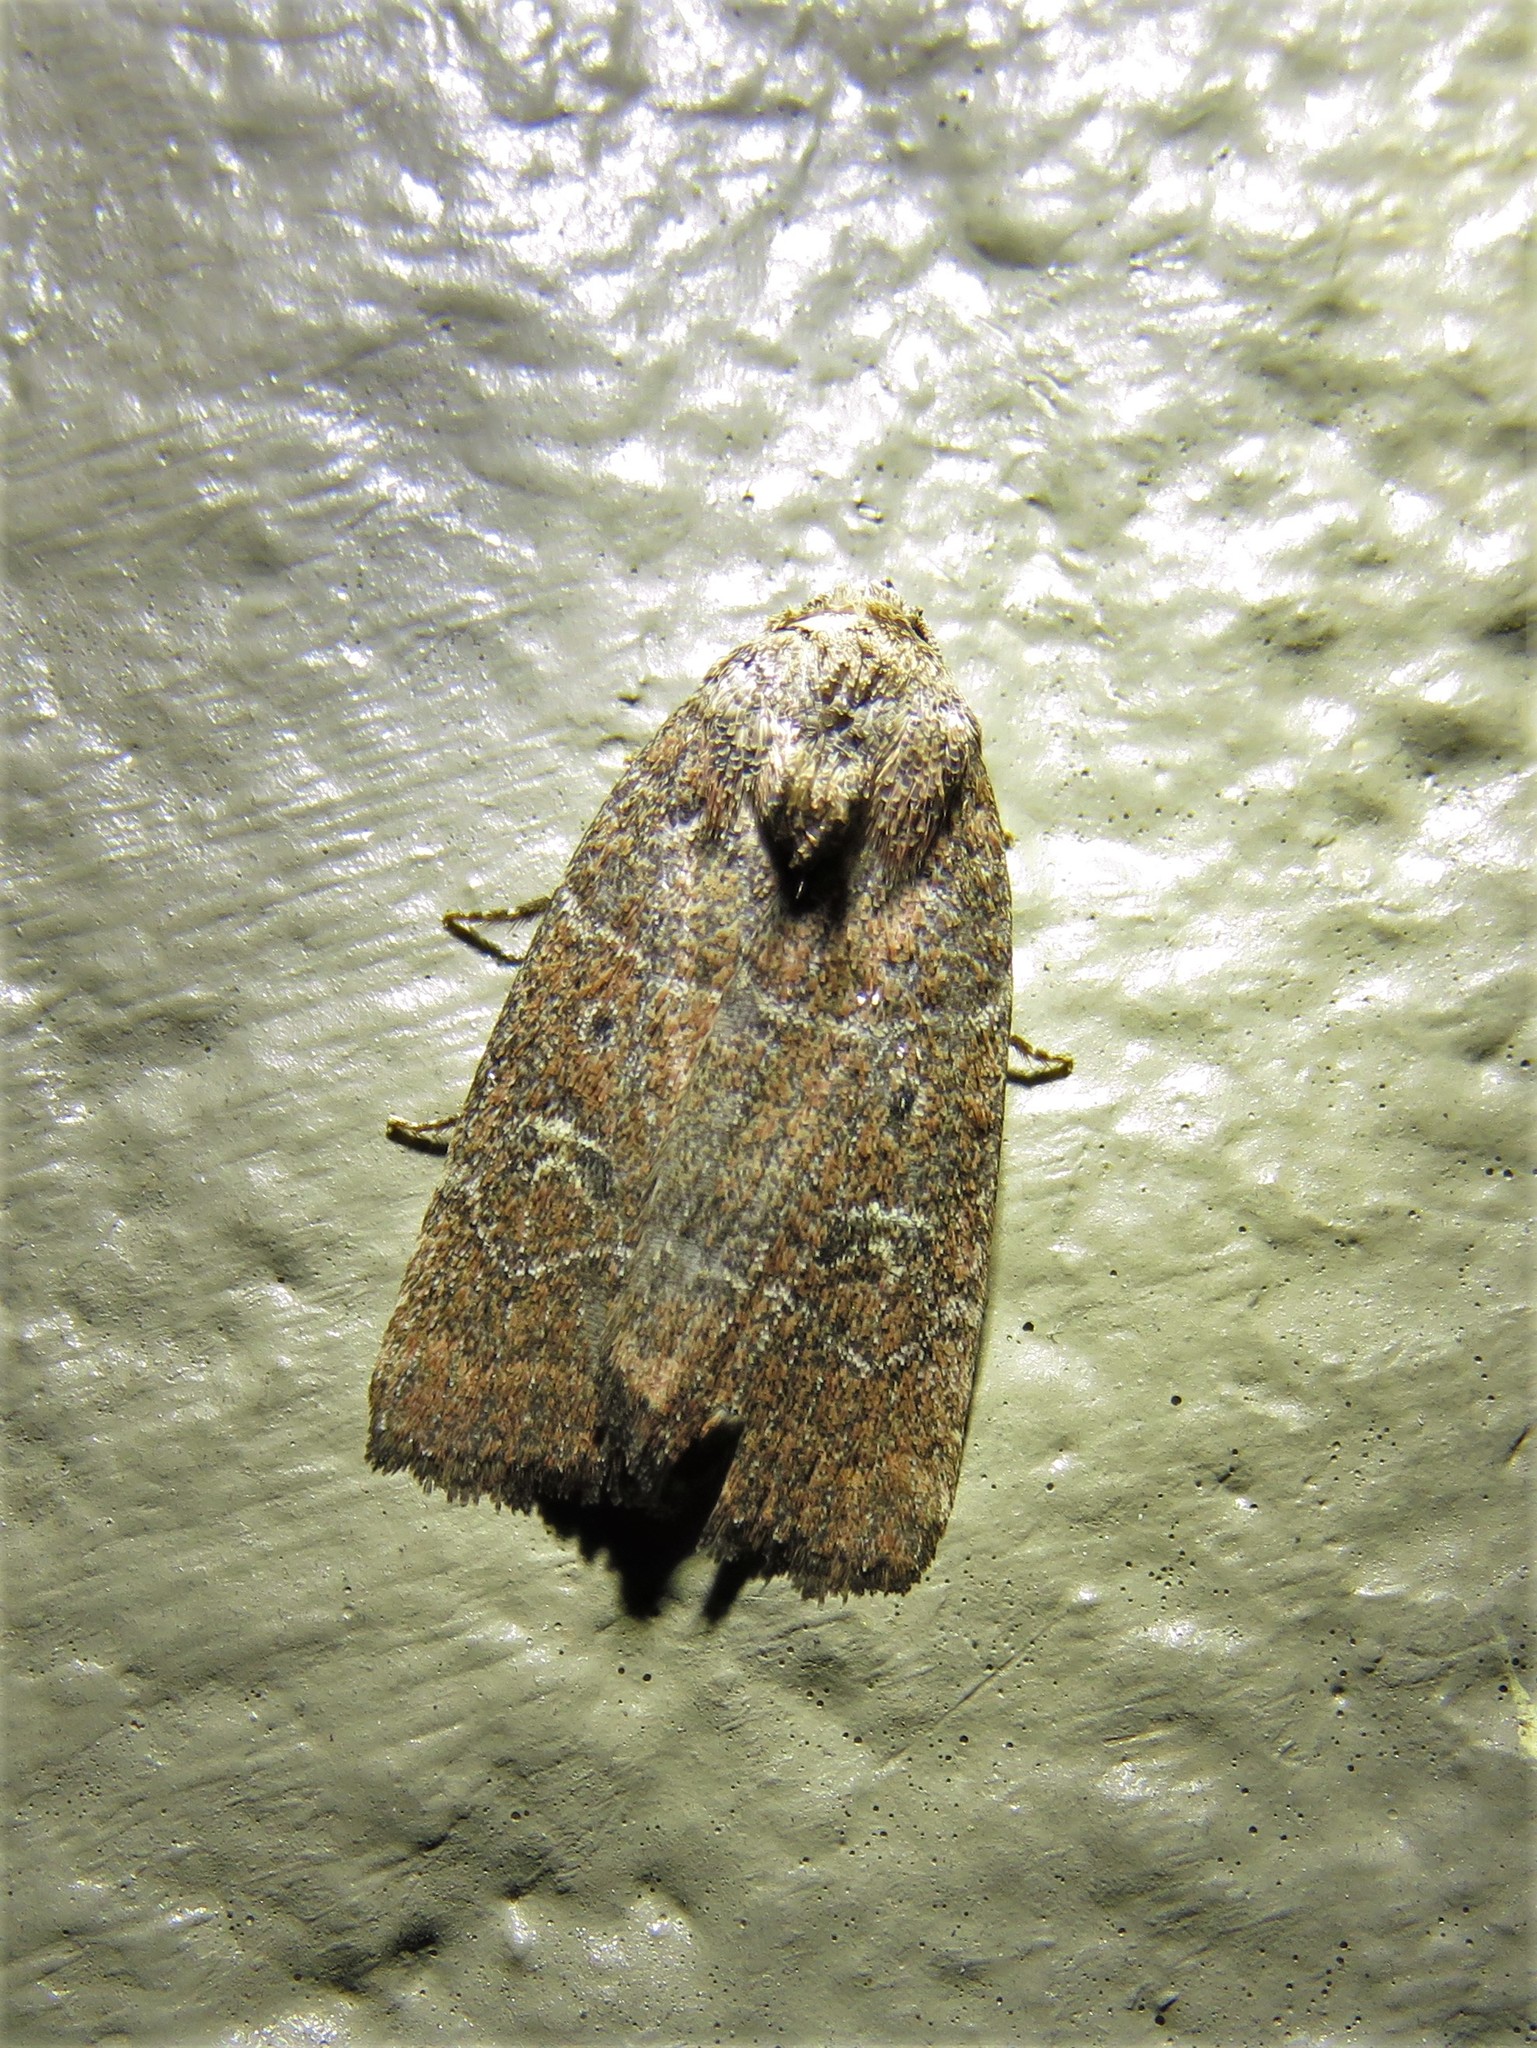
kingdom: Animalia
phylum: Arthropoda
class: Insecta
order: Lepidoptera
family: Noctuidae
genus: Elaphria
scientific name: Elaphria grata
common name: Grateful midget moth
